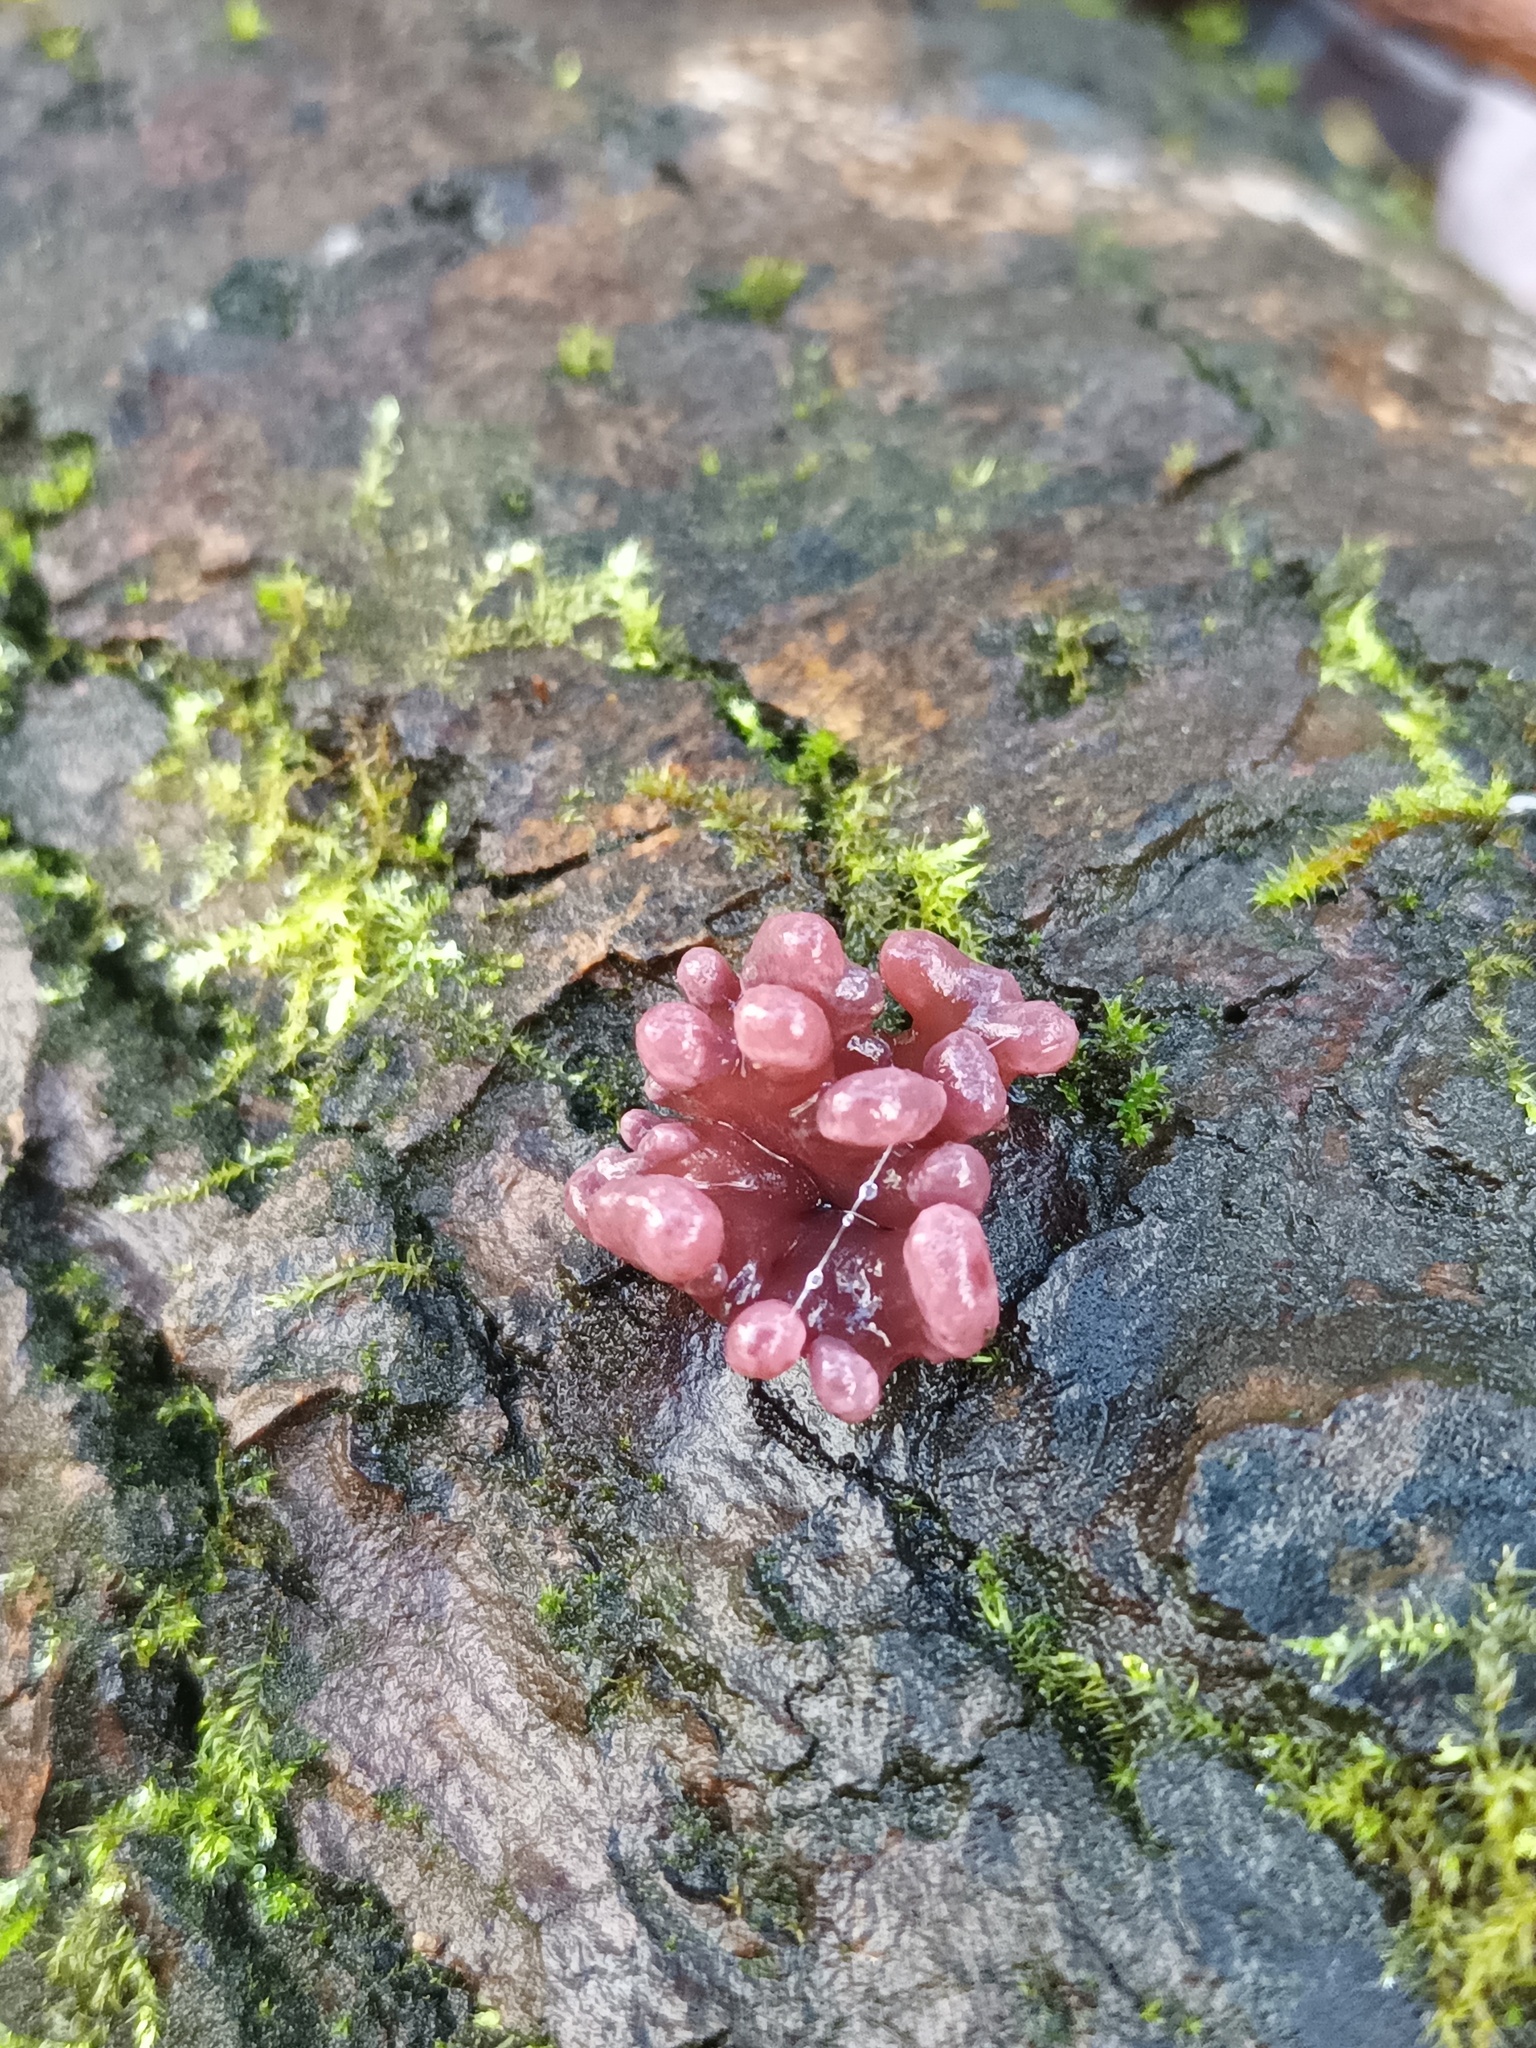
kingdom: Fungi
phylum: Ascomycota
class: Leotiomycetes
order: Helotiales
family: Gelatinodiscaceae
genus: Ascocoryne
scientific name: Ascocoryne sarcoides
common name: Purple jellydisc
